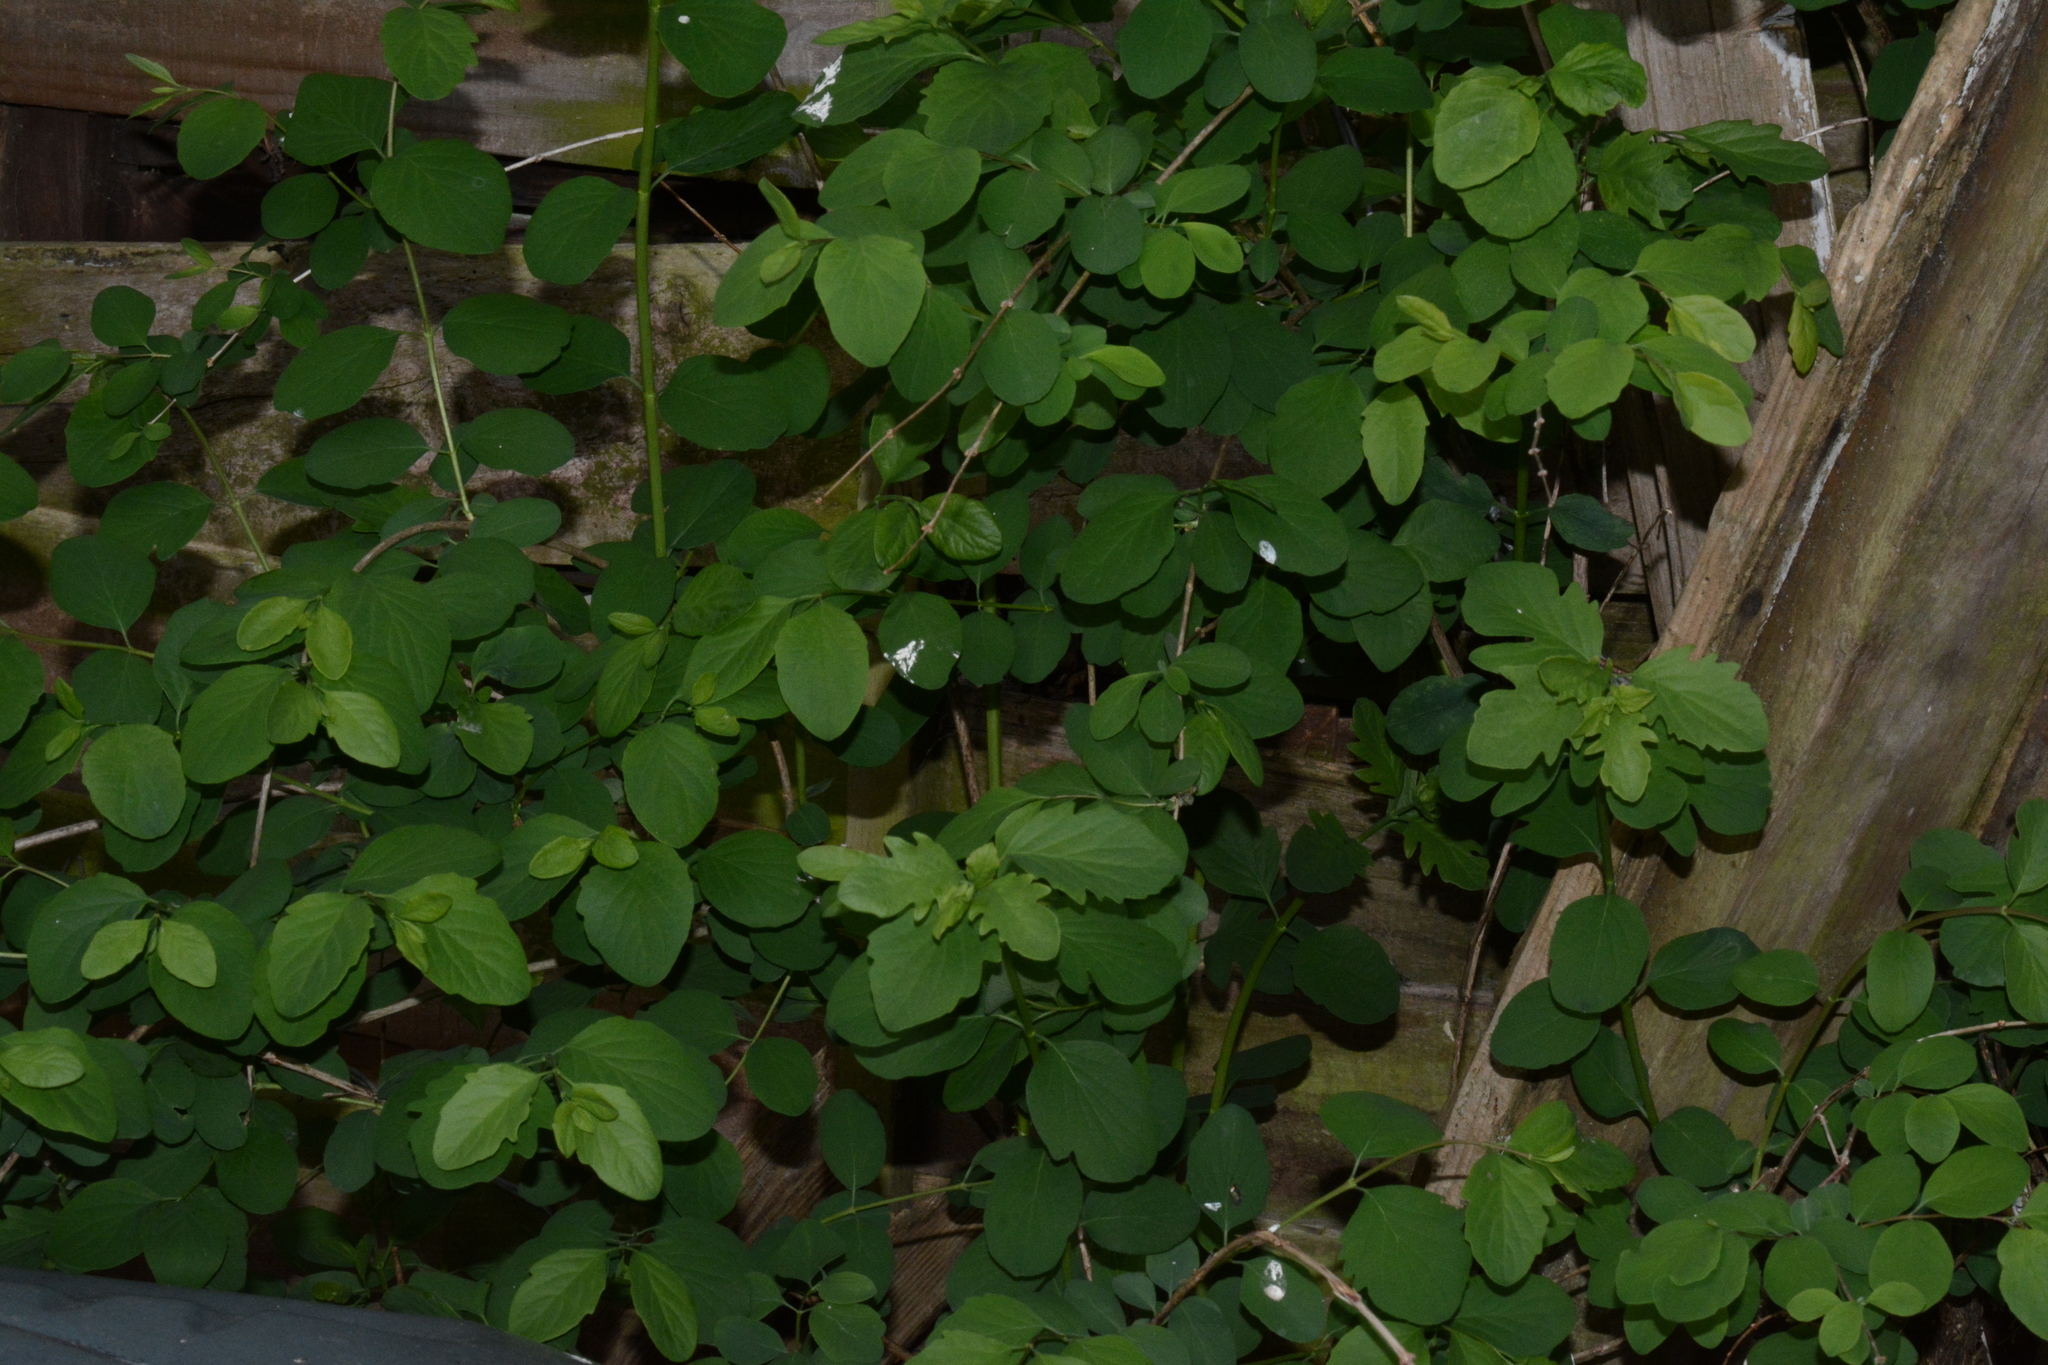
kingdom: Plantae
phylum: Tracheophyta
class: Magnoliopsida
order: Dipsacales
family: Caprifoliaceae
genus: Symphoricarpos
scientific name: Symphoricarpos albus
